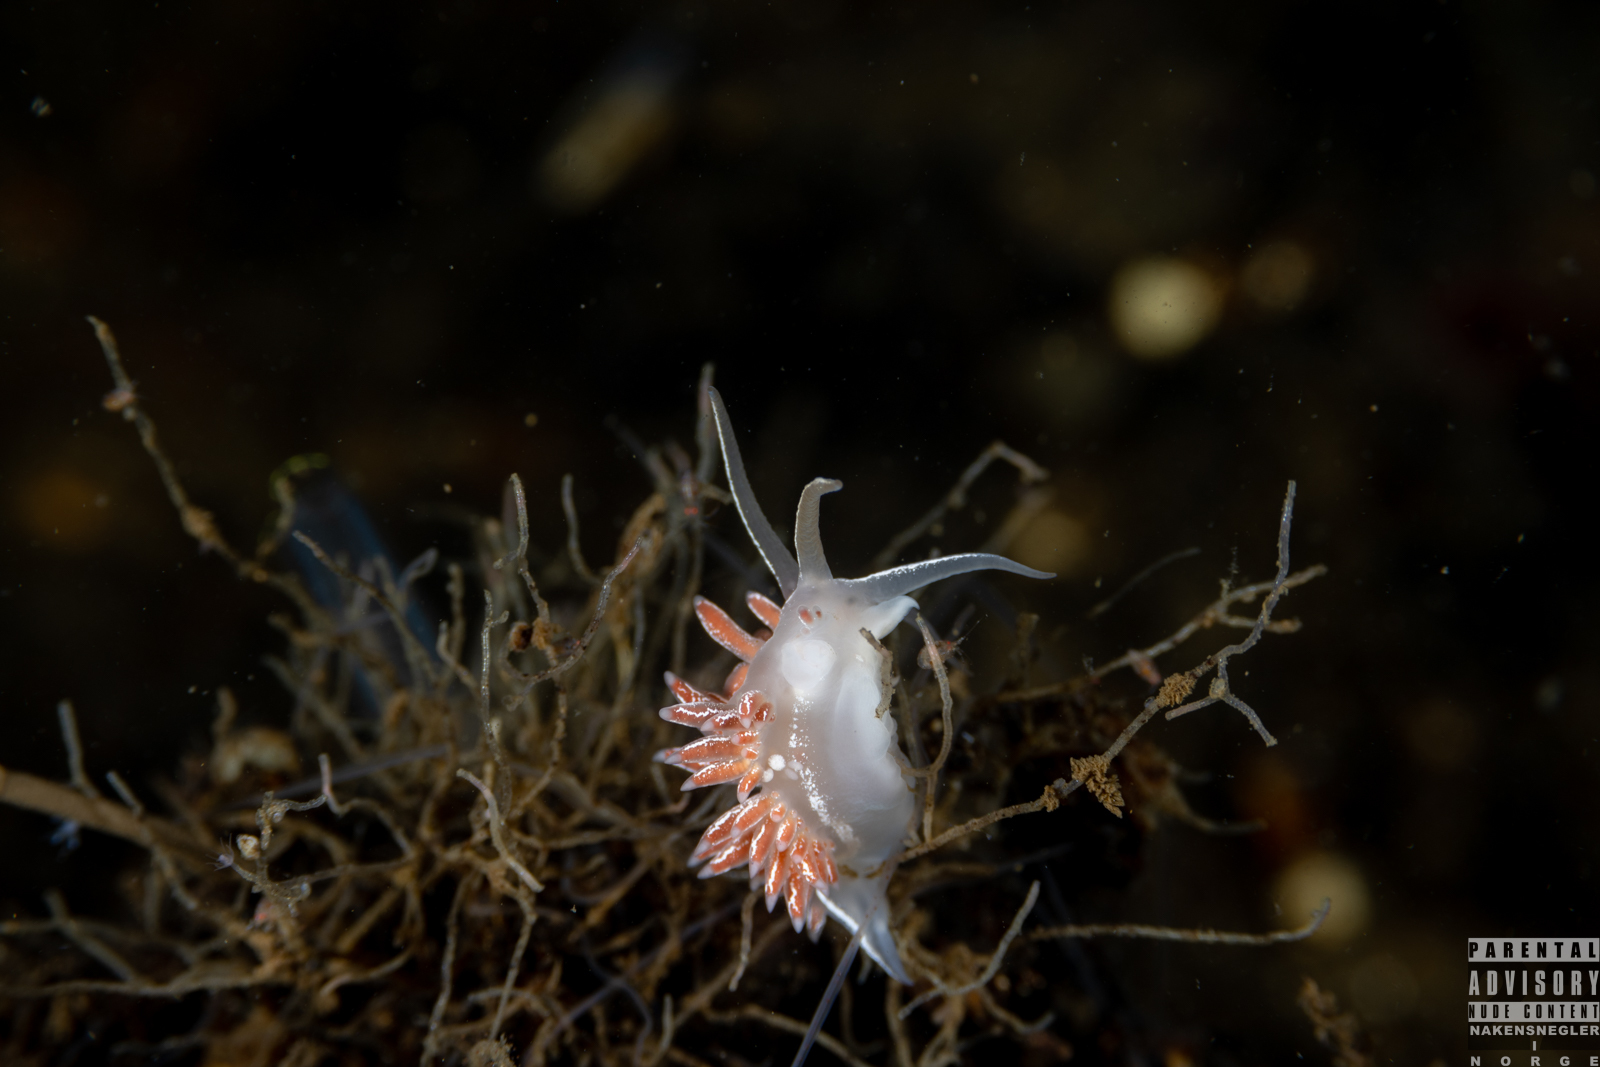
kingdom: Animalia
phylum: Mollusca
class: Gastropoda
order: Nudibranchia
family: Coryphellidae
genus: Coryphella
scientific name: Coryphella chriskaugei
